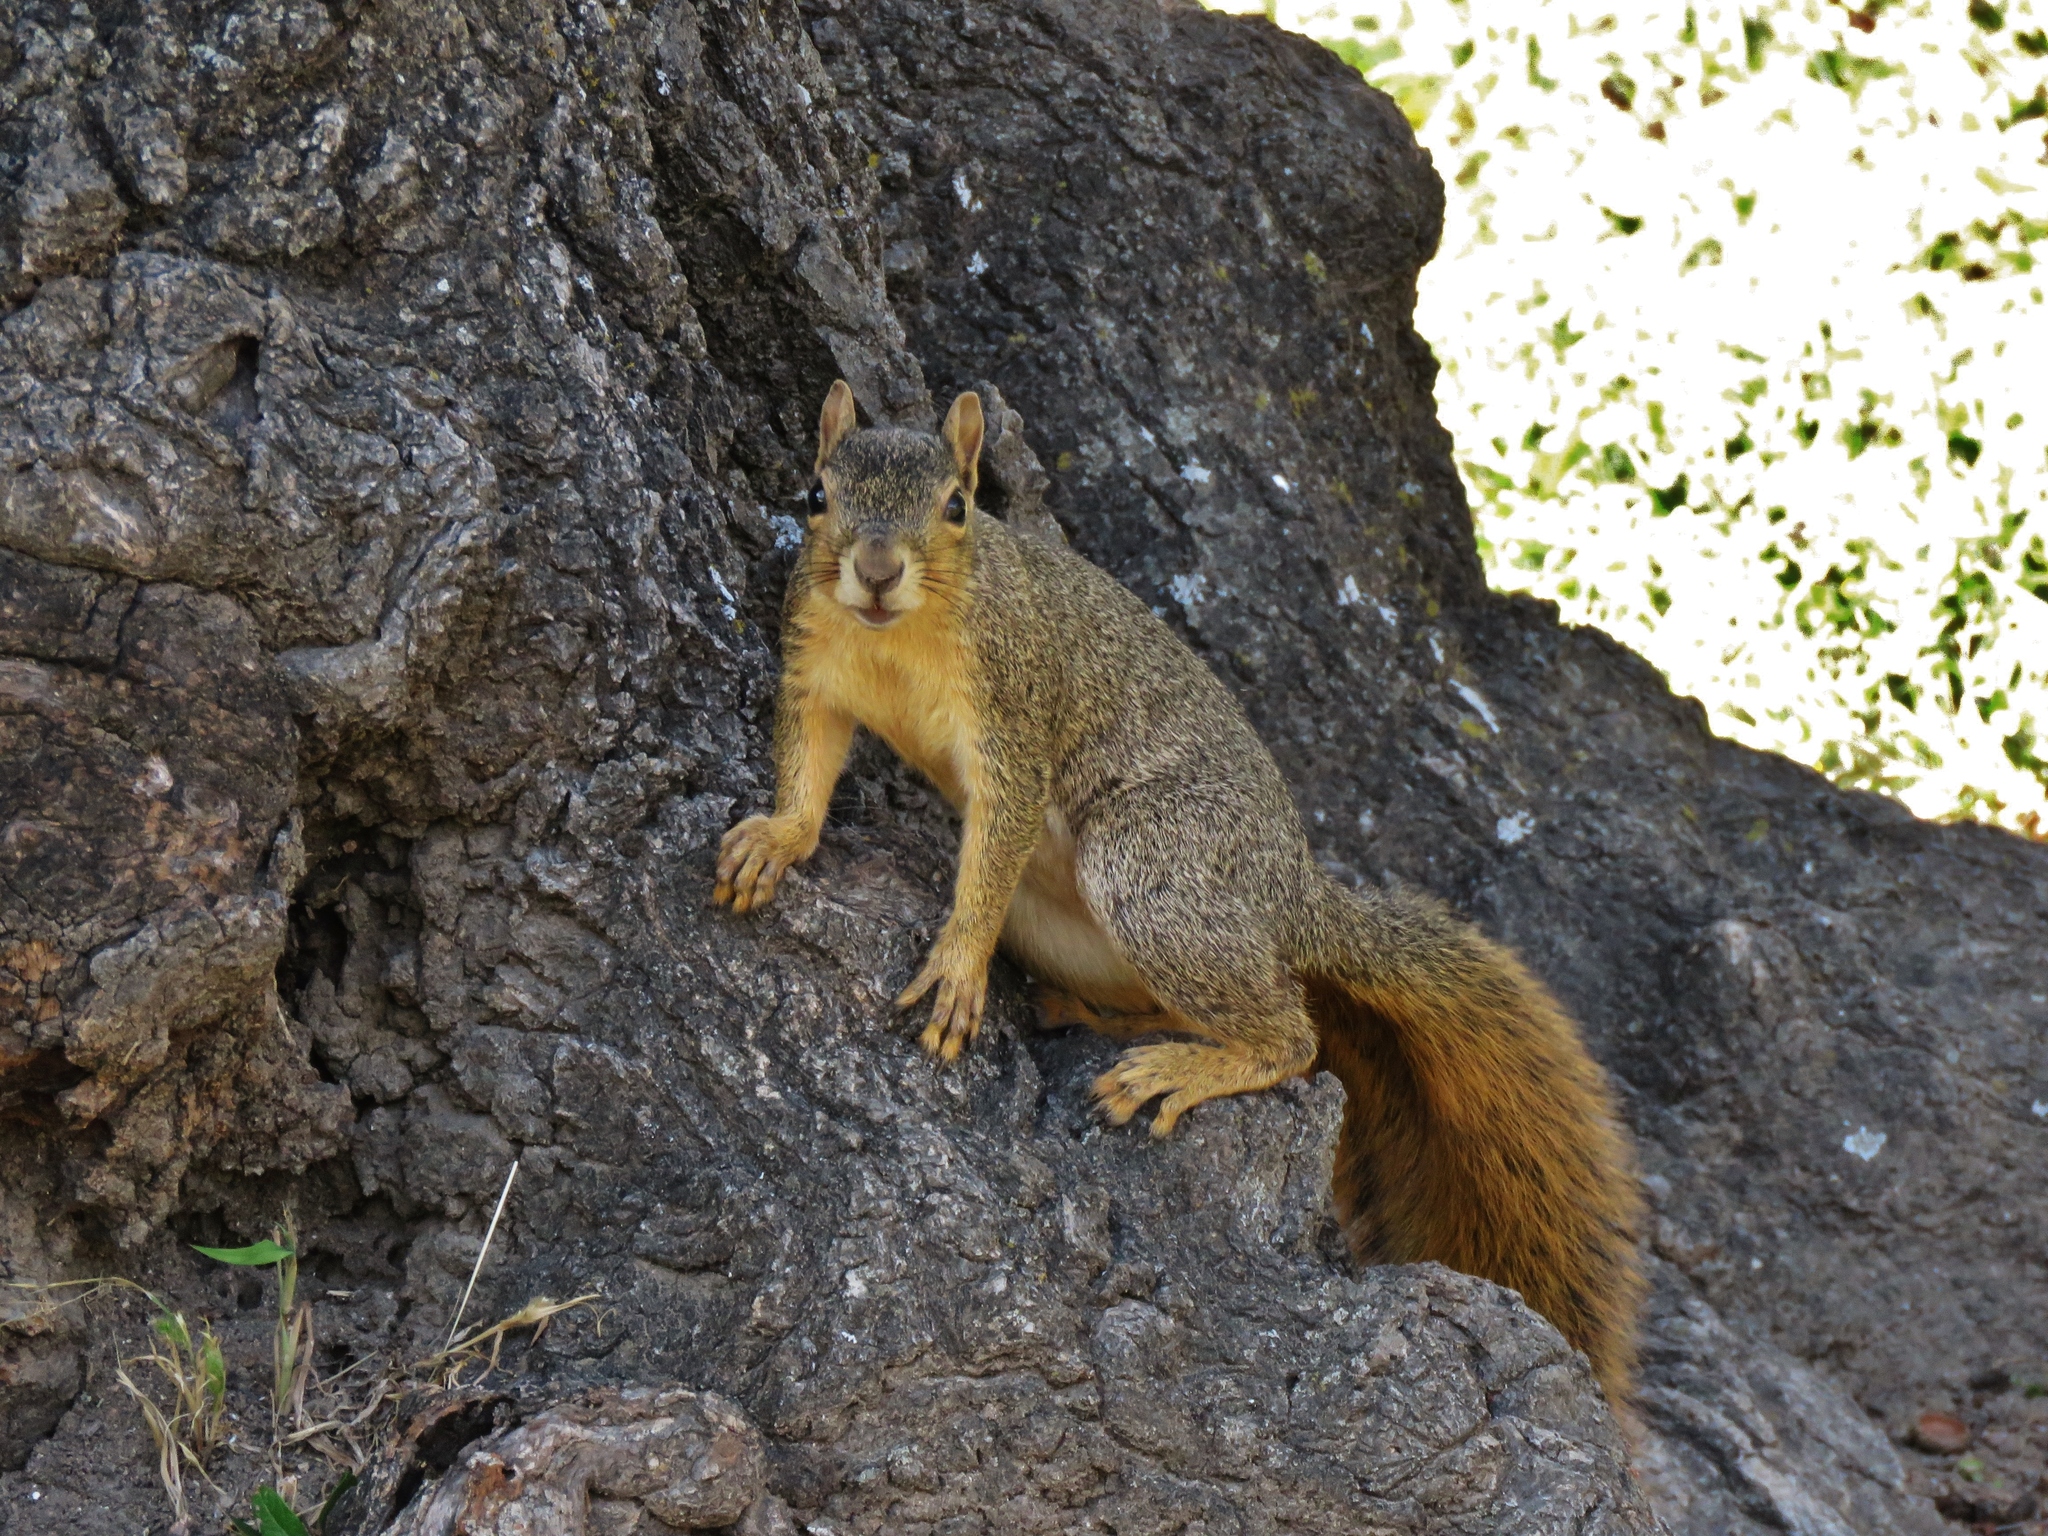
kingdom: Animalia
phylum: Chordata
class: Mammalia
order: Rodentia
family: Sciuridae
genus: Sciurus
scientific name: Sciurus niger
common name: Fox squirrel
